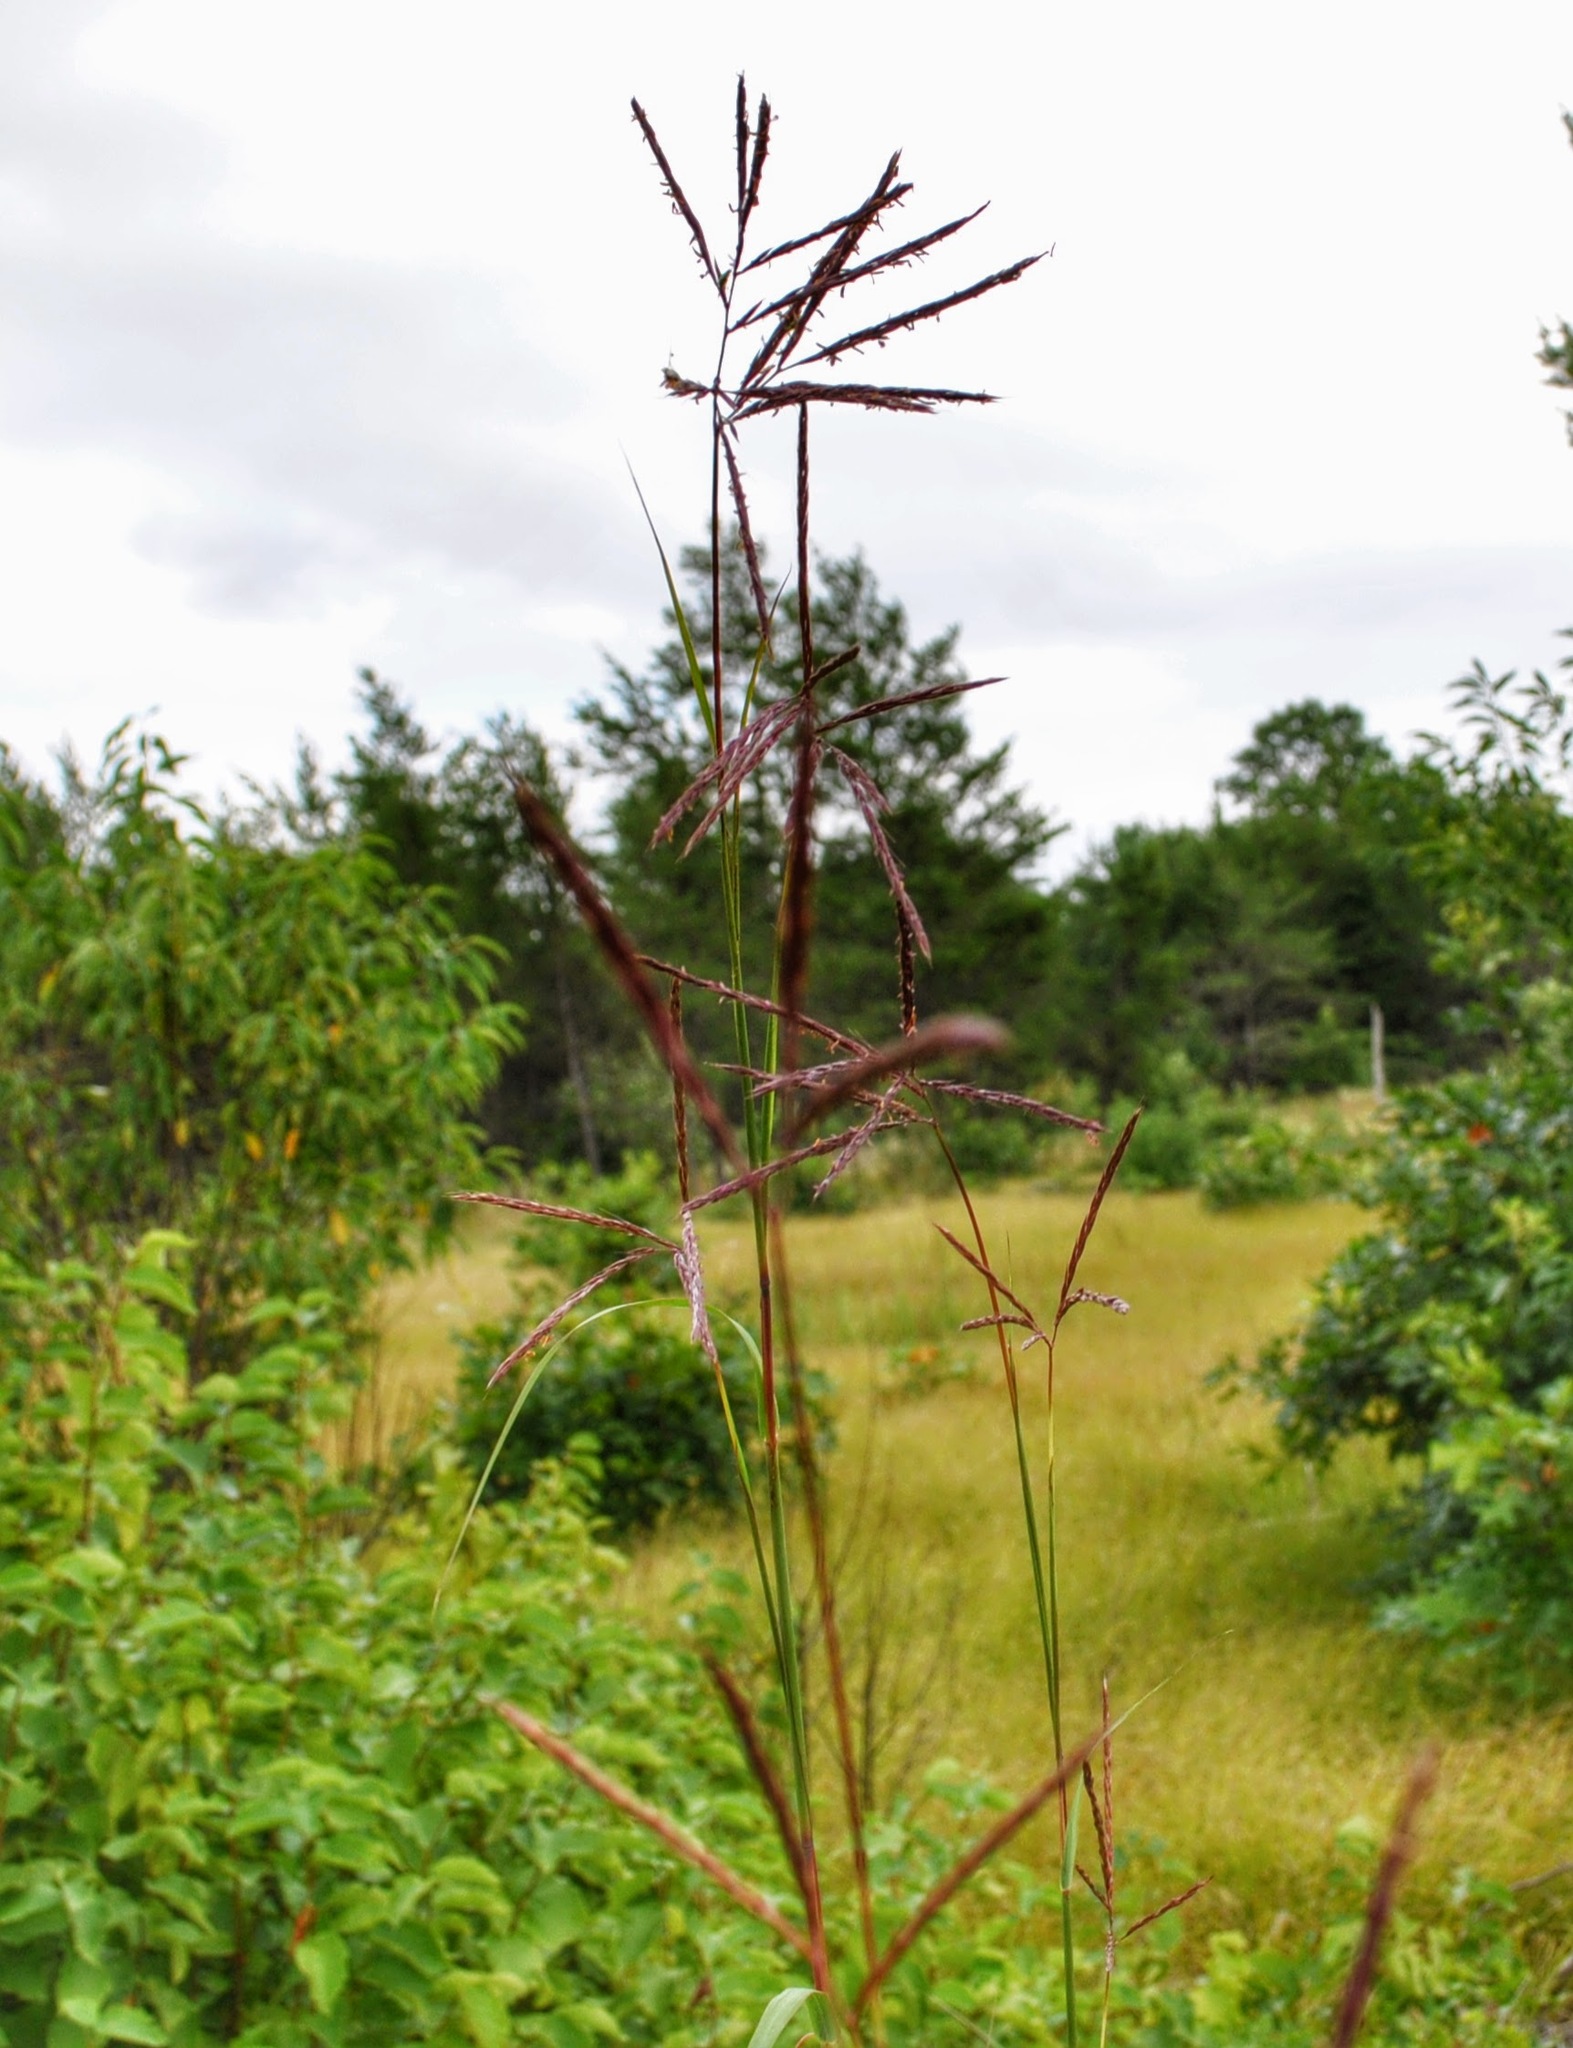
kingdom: Plantae
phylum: Tracheophyta
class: Liliopsida
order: Poales
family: Poaceae
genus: Andropogon
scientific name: Andropogon gerardi
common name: Big bluestem
